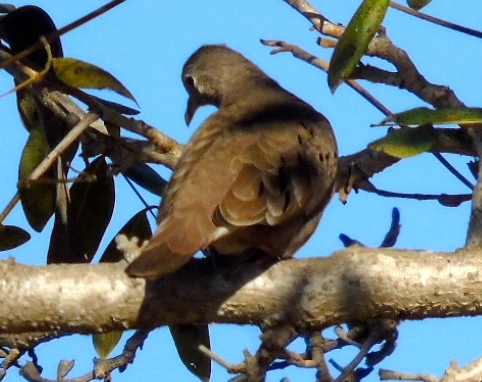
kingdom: Animalia
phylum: Chordata
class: Aves
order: Columbiformes
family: Columbidae
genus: Columbina
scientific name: Columbina talpacoti
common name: Ruddy ground dove
